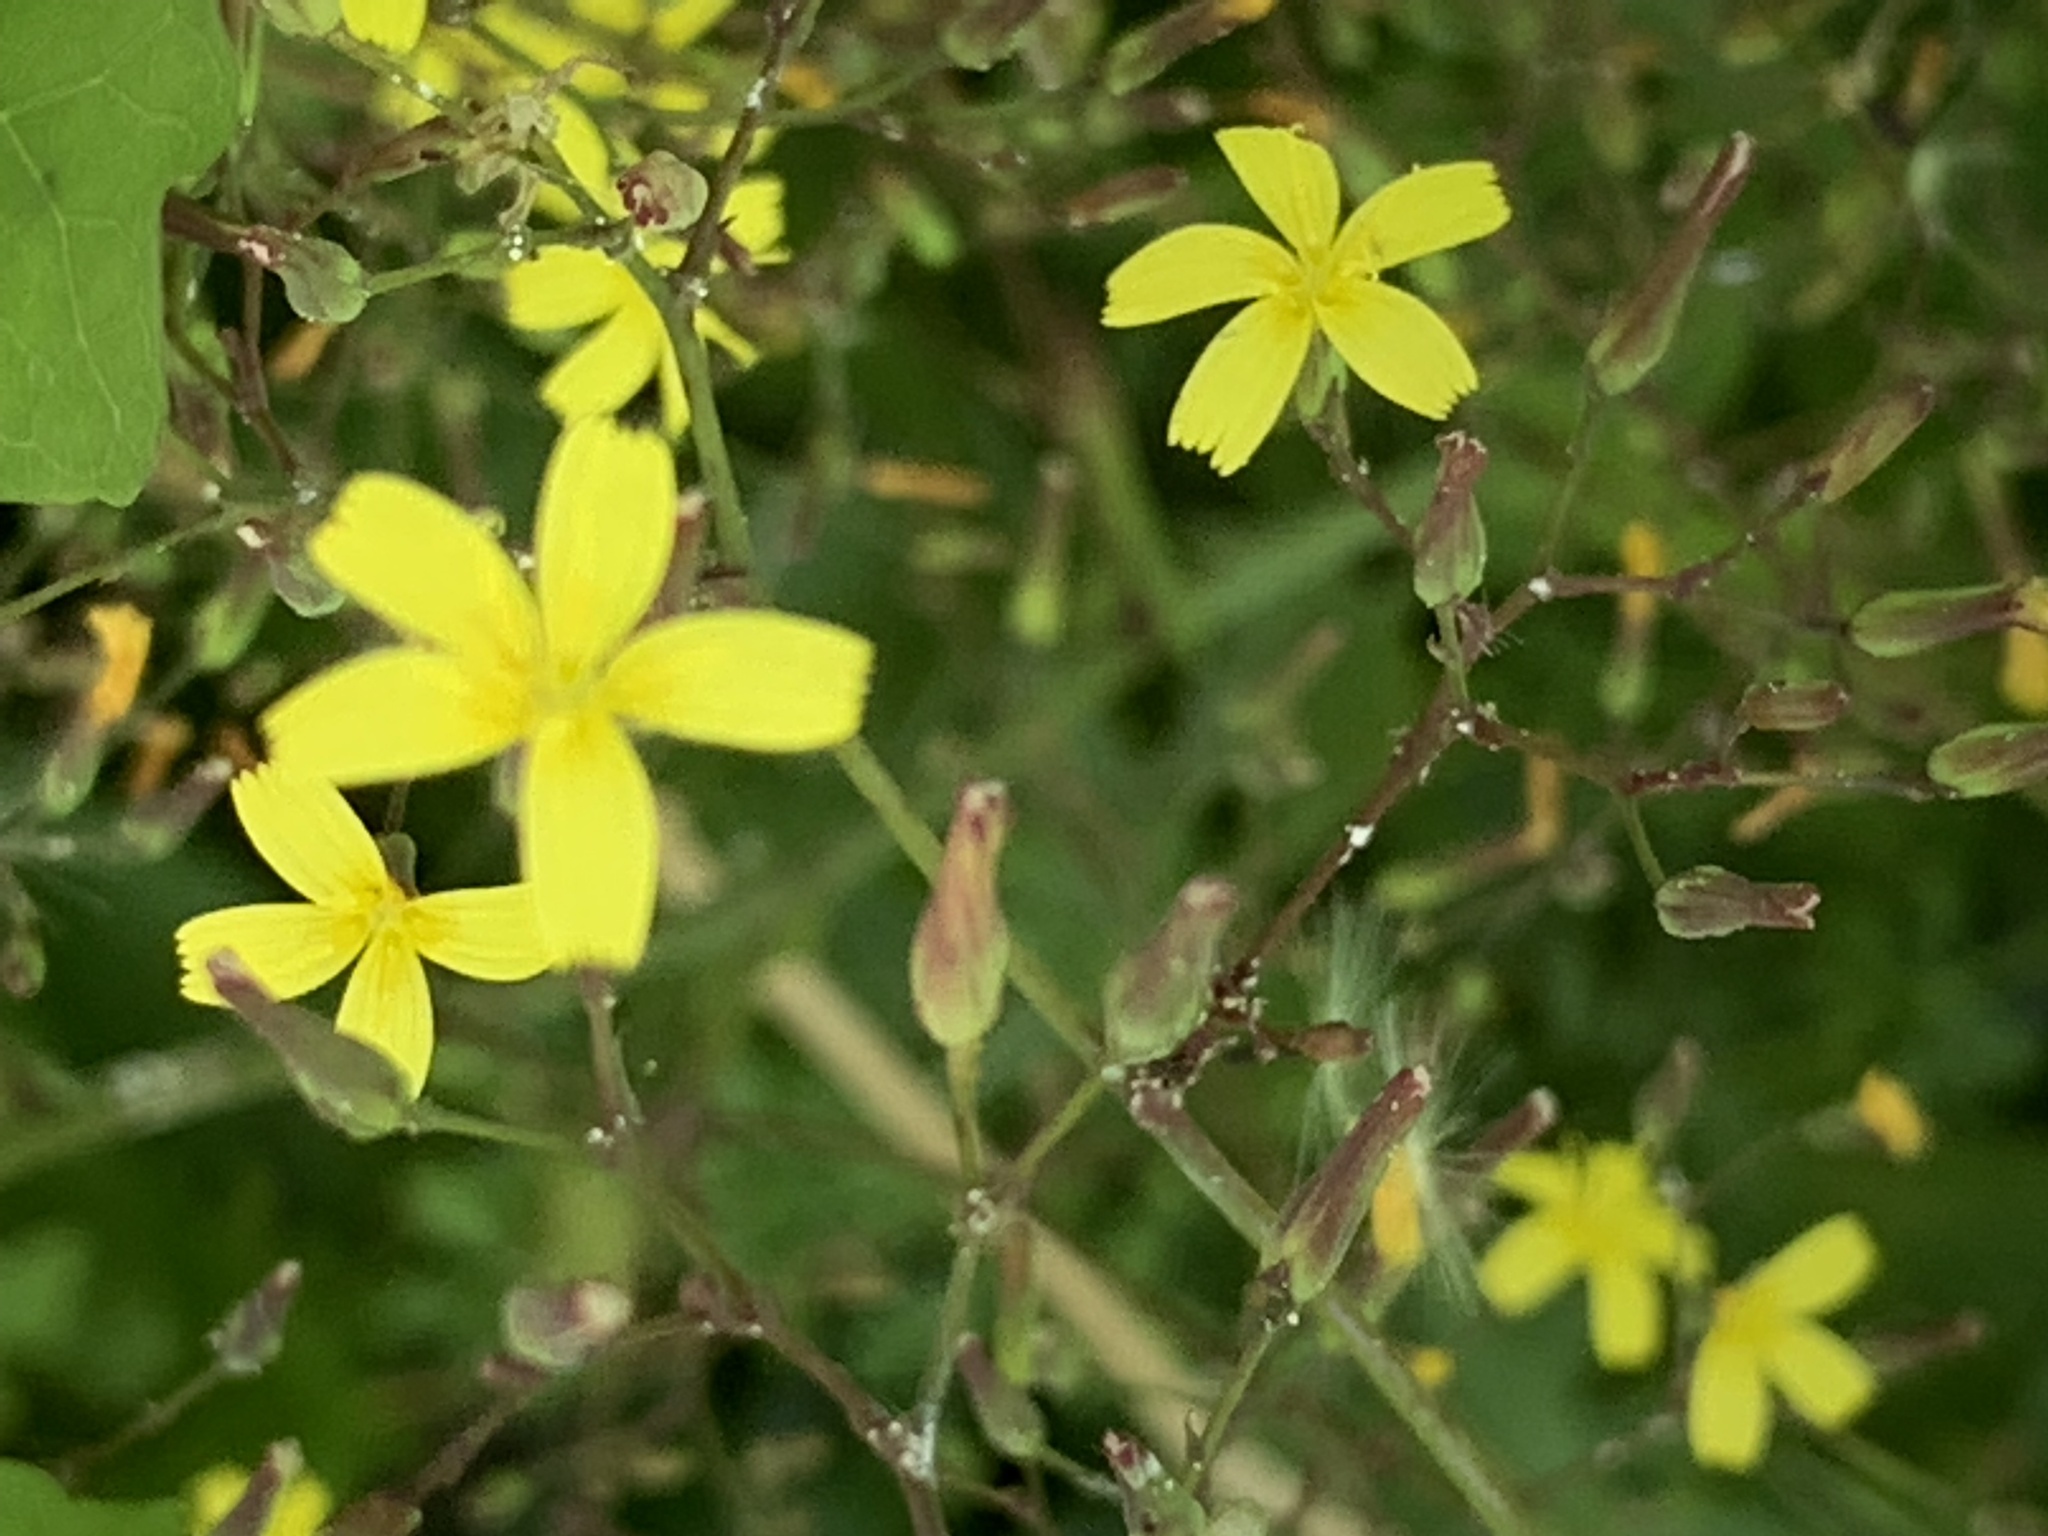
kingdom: Plantae
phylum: Tracheophyta
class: Magnoliopsida
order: Asterales
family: Asteraceae
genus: Mycelis
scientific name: Mycelis muralis
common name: Wall lettuce
